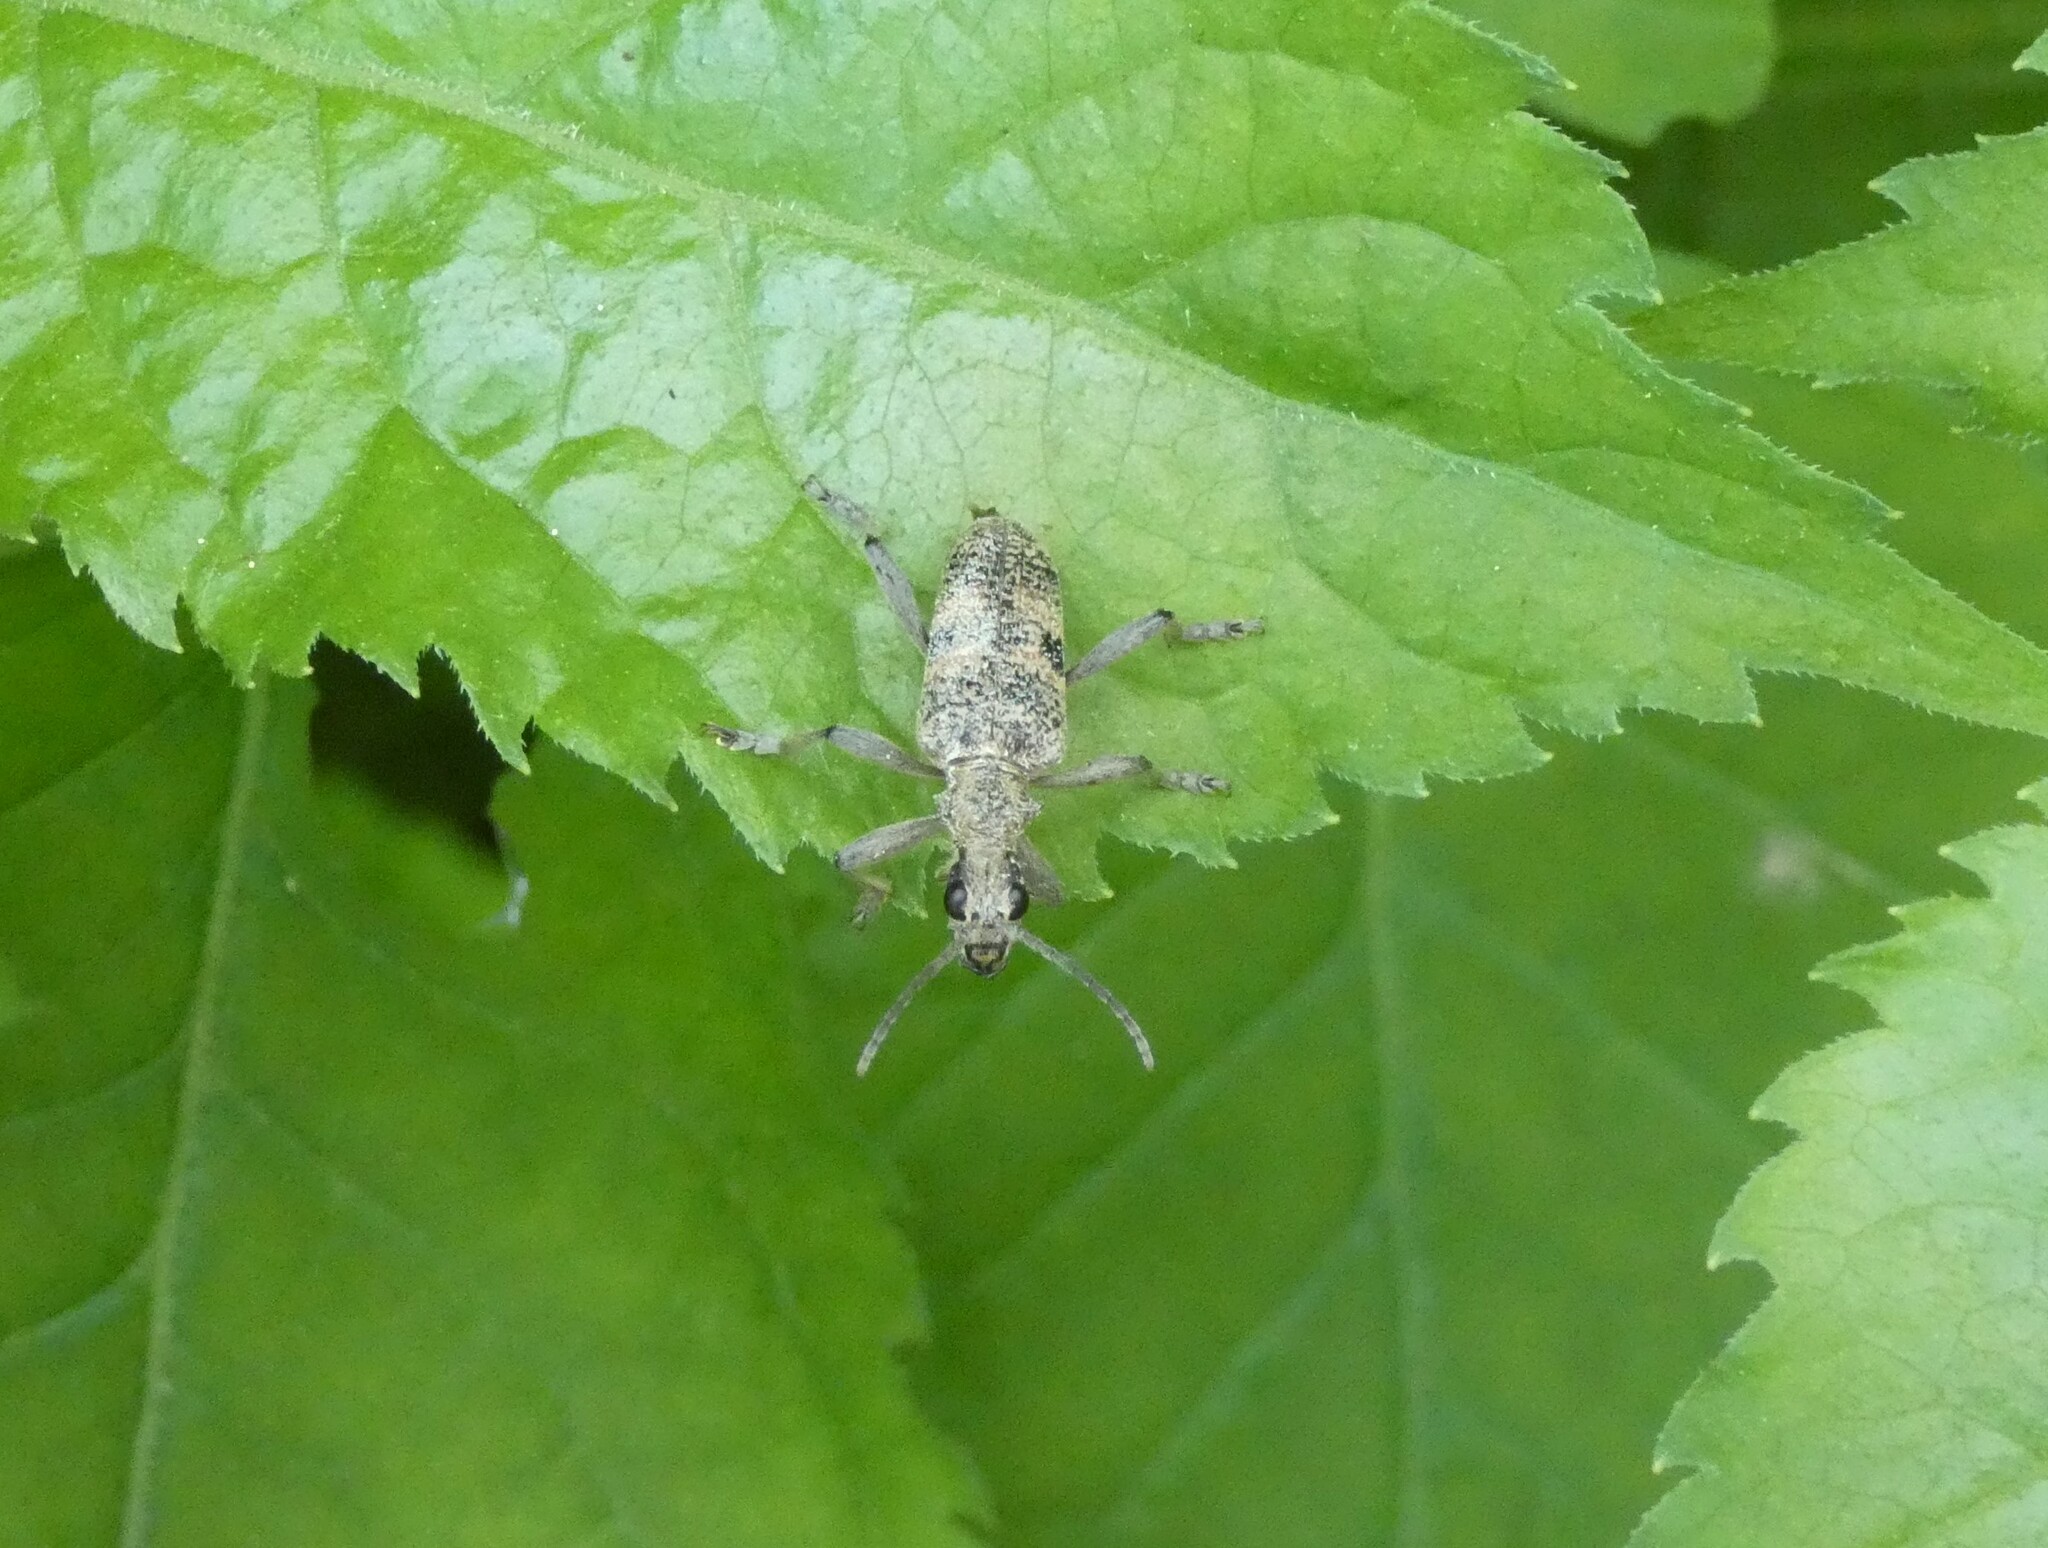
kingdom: Animalia
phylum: Arthropoda
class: Insecta
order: Coleoptera
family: Cerambycidae
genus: Rhagium
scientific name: Rhagium mordax
